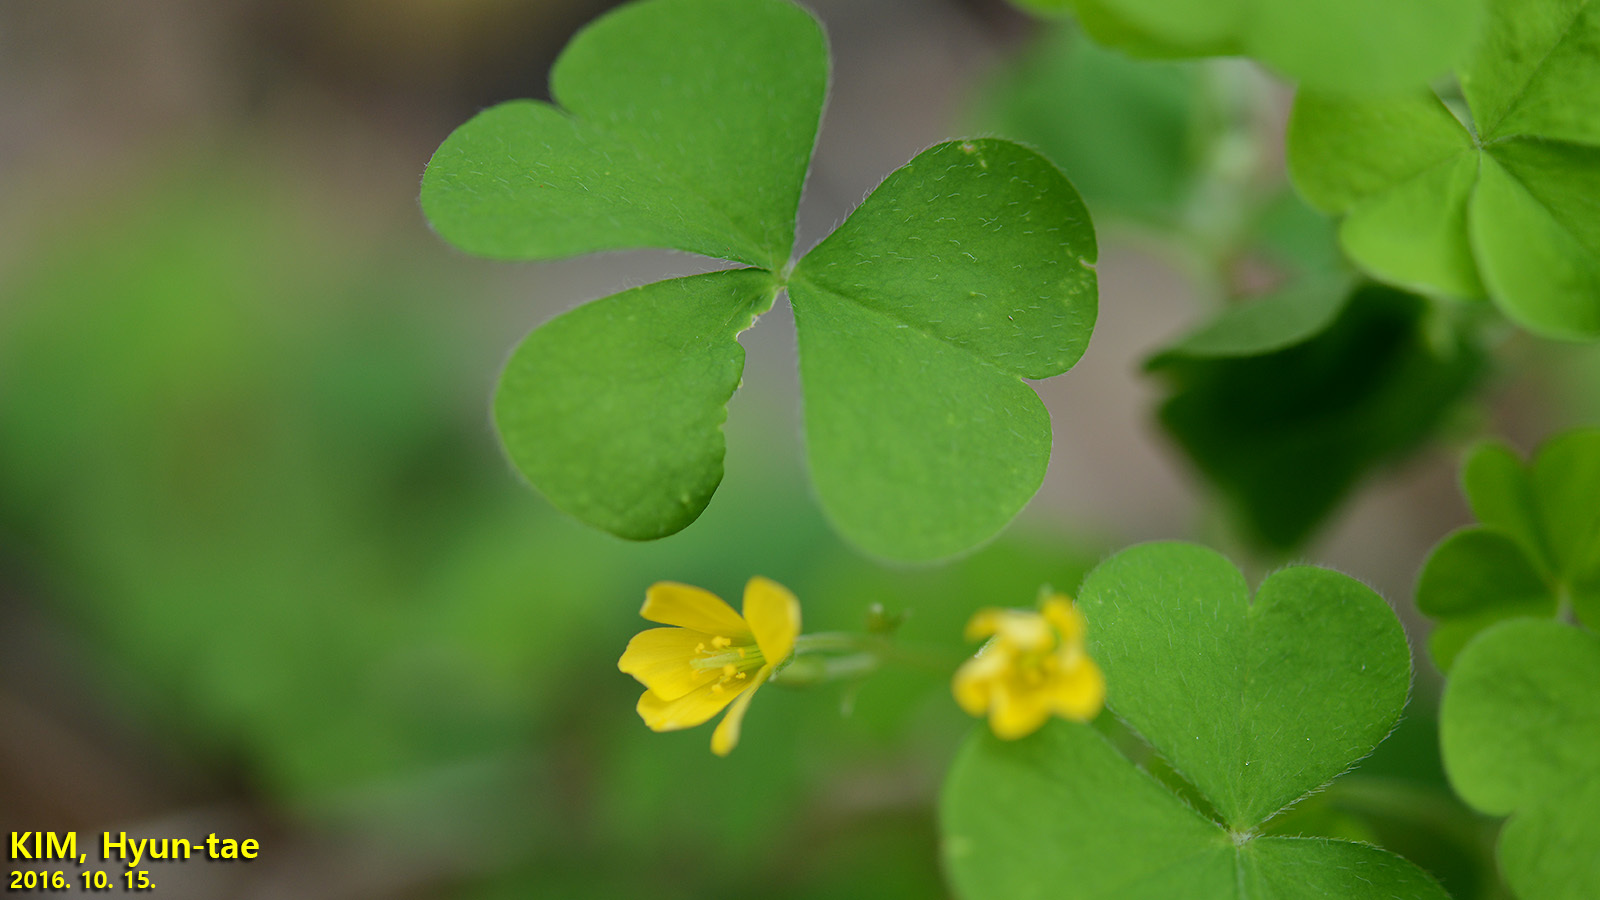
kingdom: Plantae
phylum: Tracheophyta
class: Magnoliopsida
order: Oxalidales
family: Oxalidaceae
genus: Oxalis
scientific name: Oxalis corniculata
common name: Procumbent yellow-sorrel
